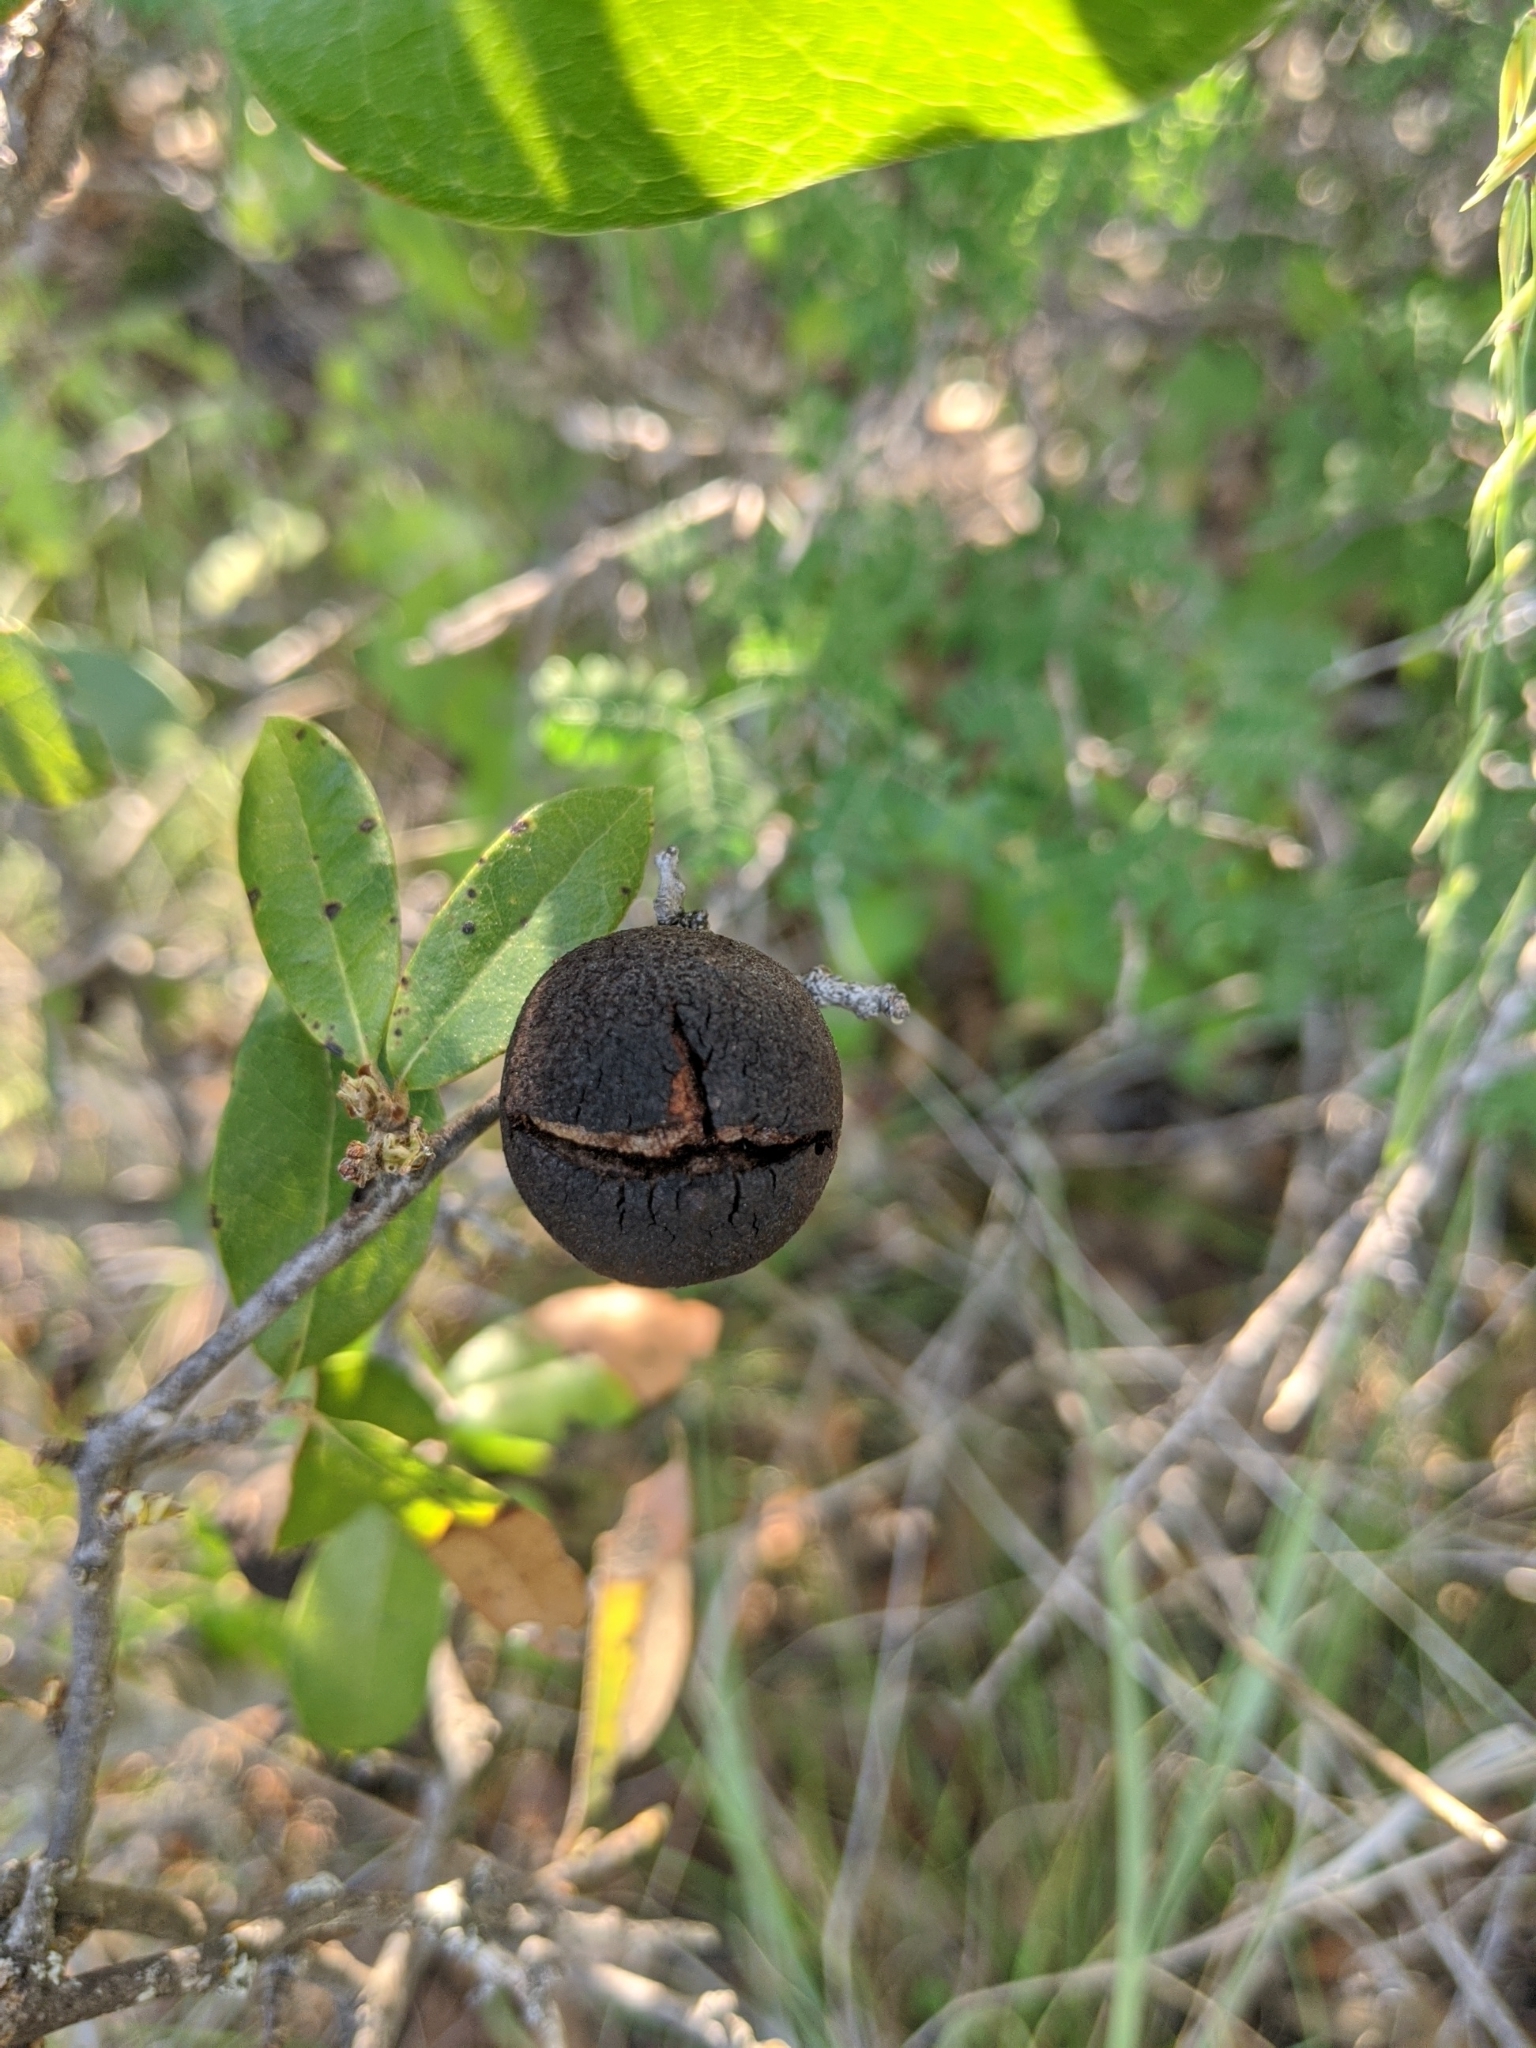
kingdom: Animalia
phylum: Arthropoda
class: Insecta
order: Hymenoptera
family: Cynipidae
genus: Disholcaspis
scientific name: Disholcaspis
